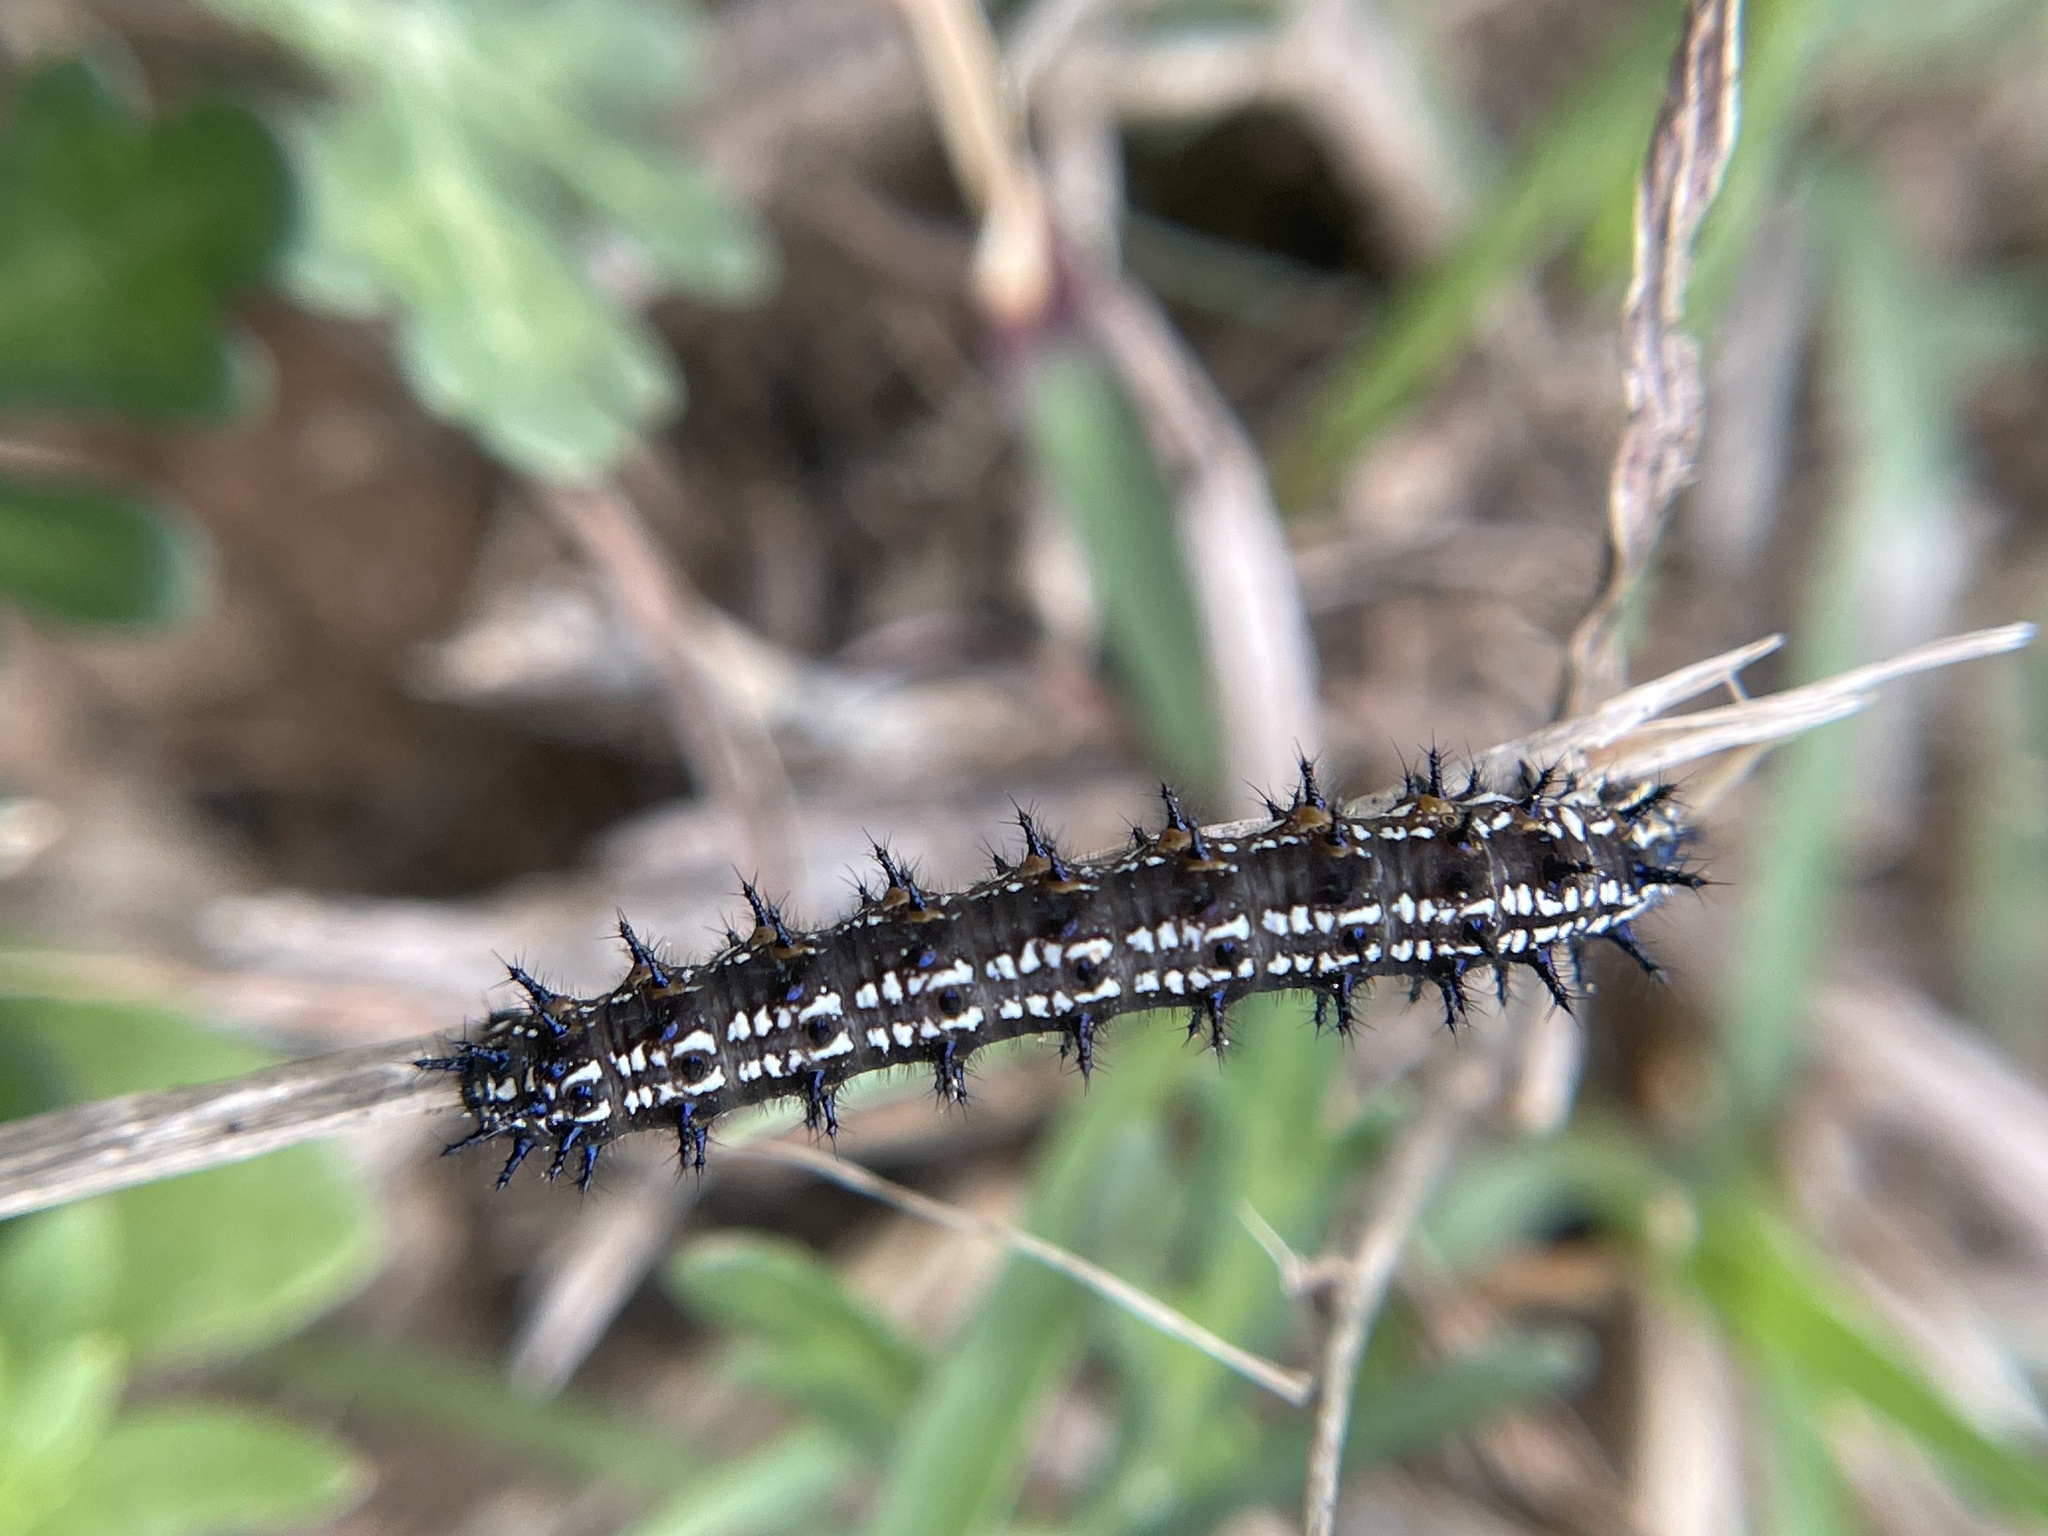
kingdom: Animalia
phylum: Arthropoda
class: Insecta
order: Lepidoptera
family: Nymphalidae
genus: Junonia
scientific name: Junonia coenia
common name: Common buckeye
